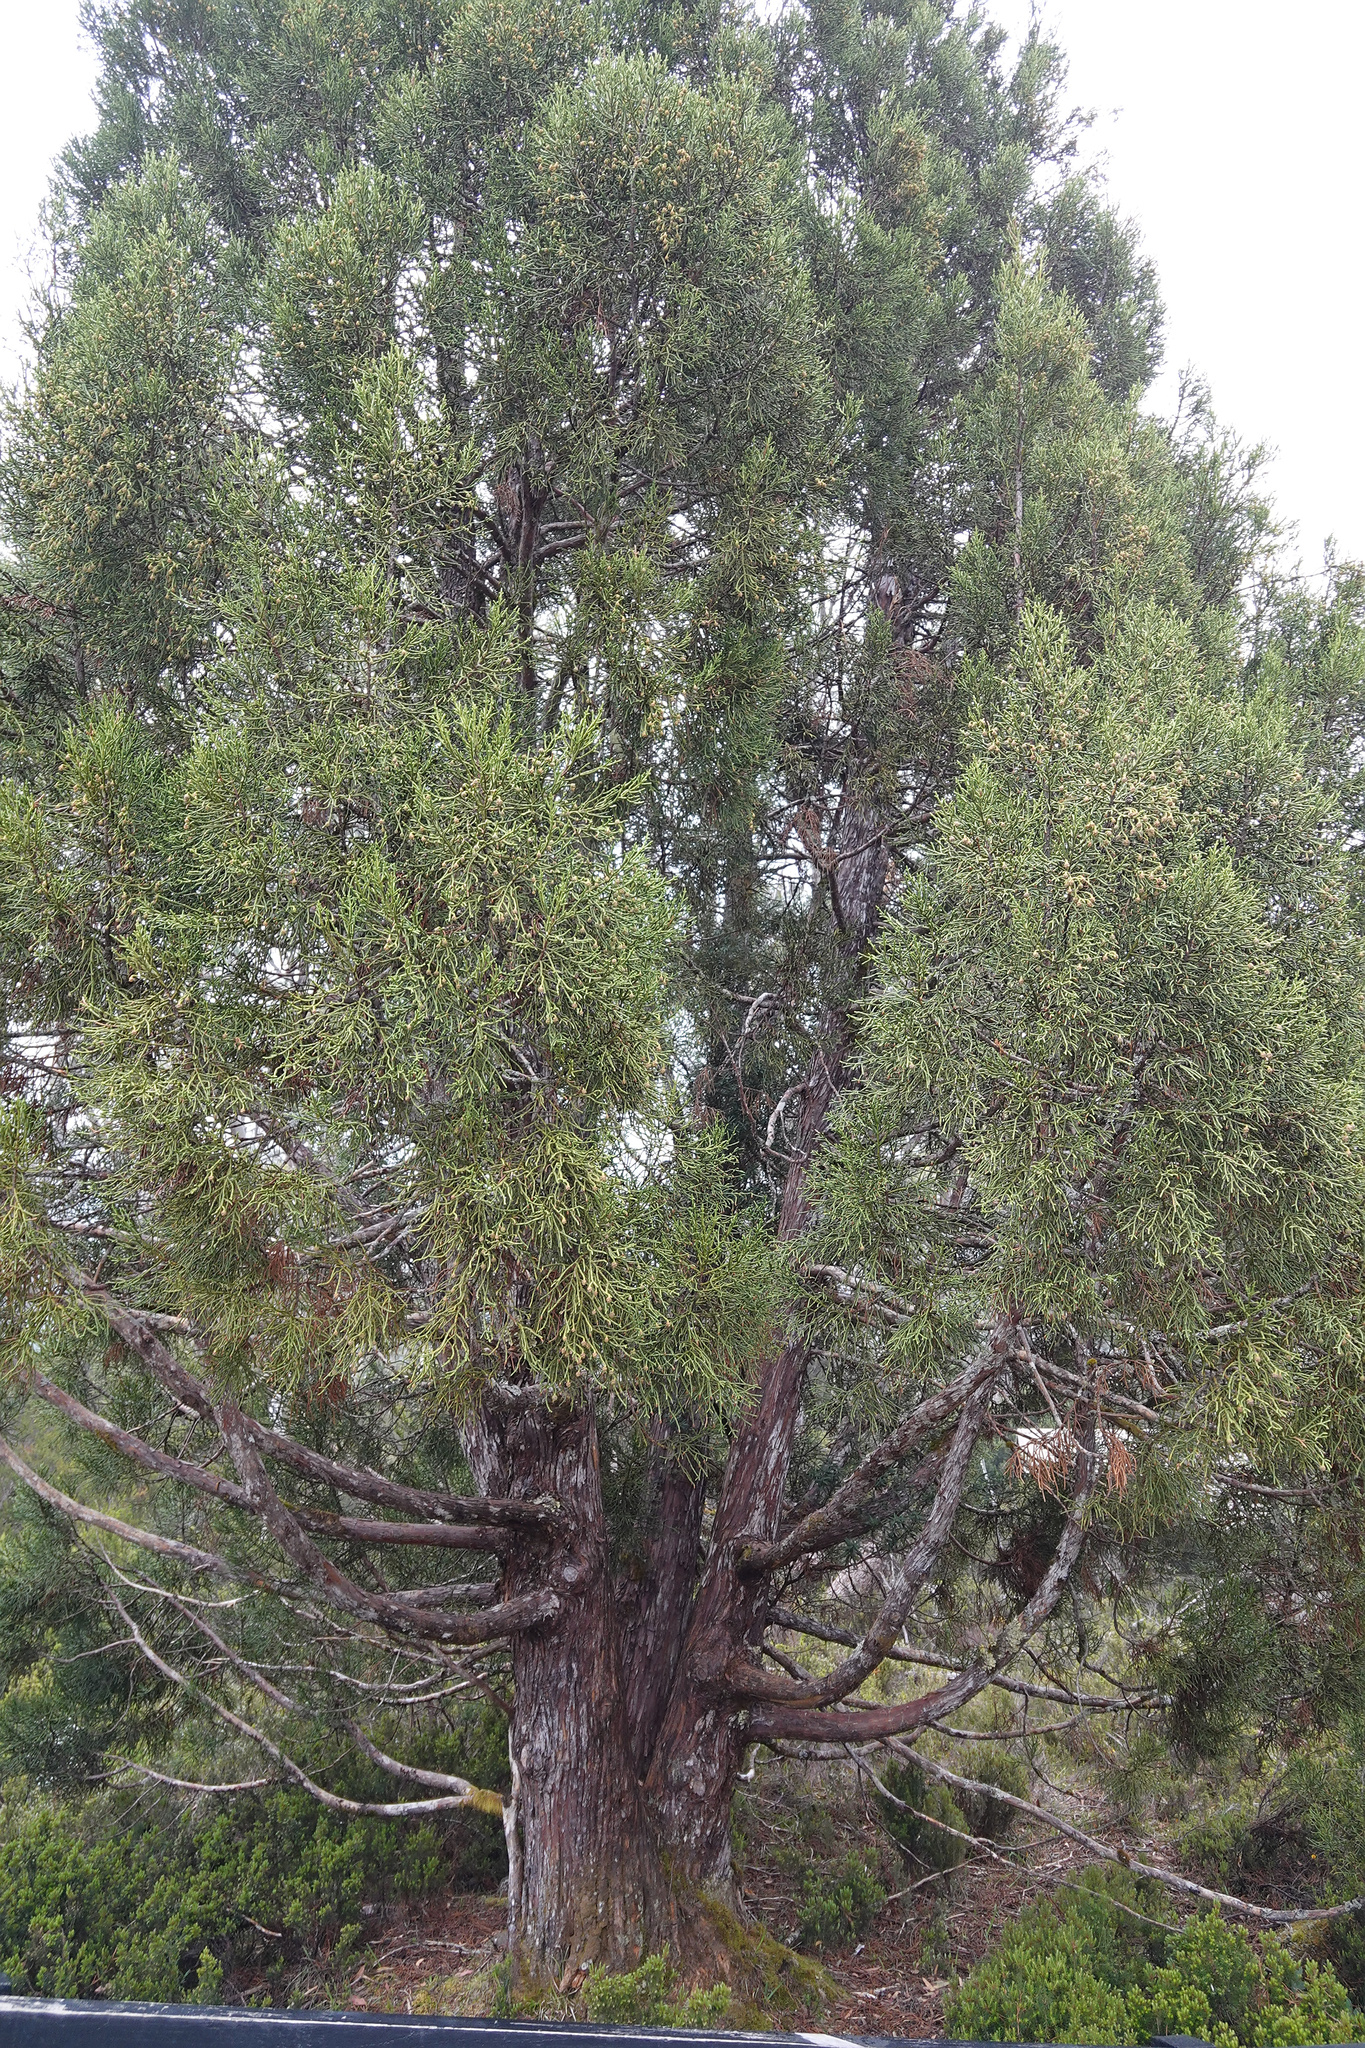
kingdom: Plantae
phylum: Tracheophyta
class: Pinopsida
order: Pinales
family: Cupressaceae
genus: Athrotaxis
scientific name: Athrotaxis cupressoides
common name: Tasmanian pencil pine
